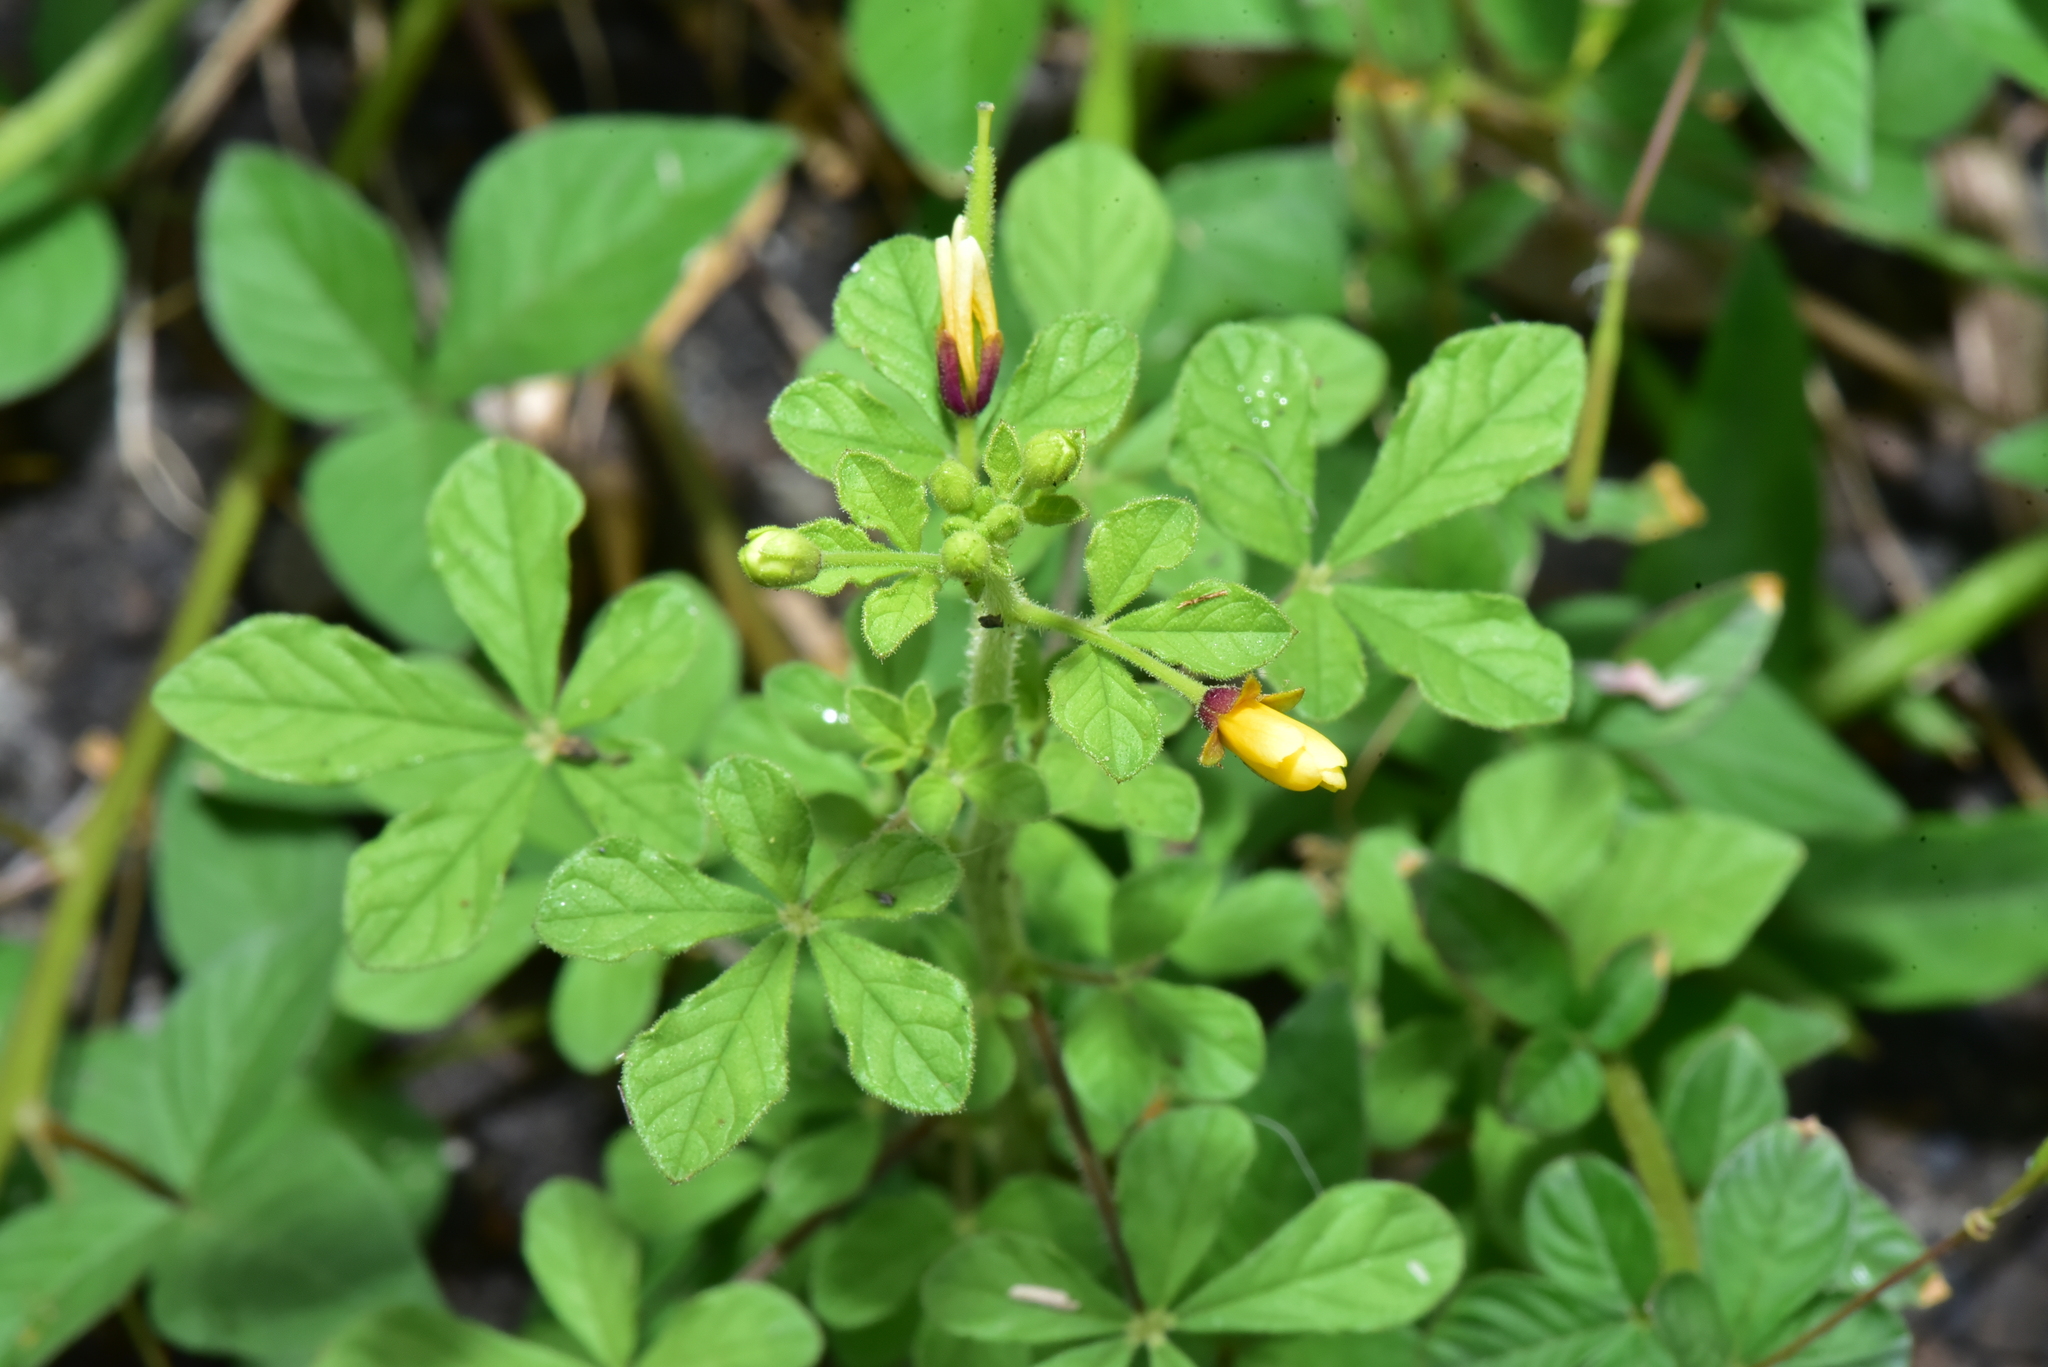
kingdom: Plantae
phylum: Tracheophyta
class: Magnoliopsida
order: Brassicales
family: Cleomaceae
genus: Arivela
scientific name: Arivela viscosa
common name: Asian spiderflower
